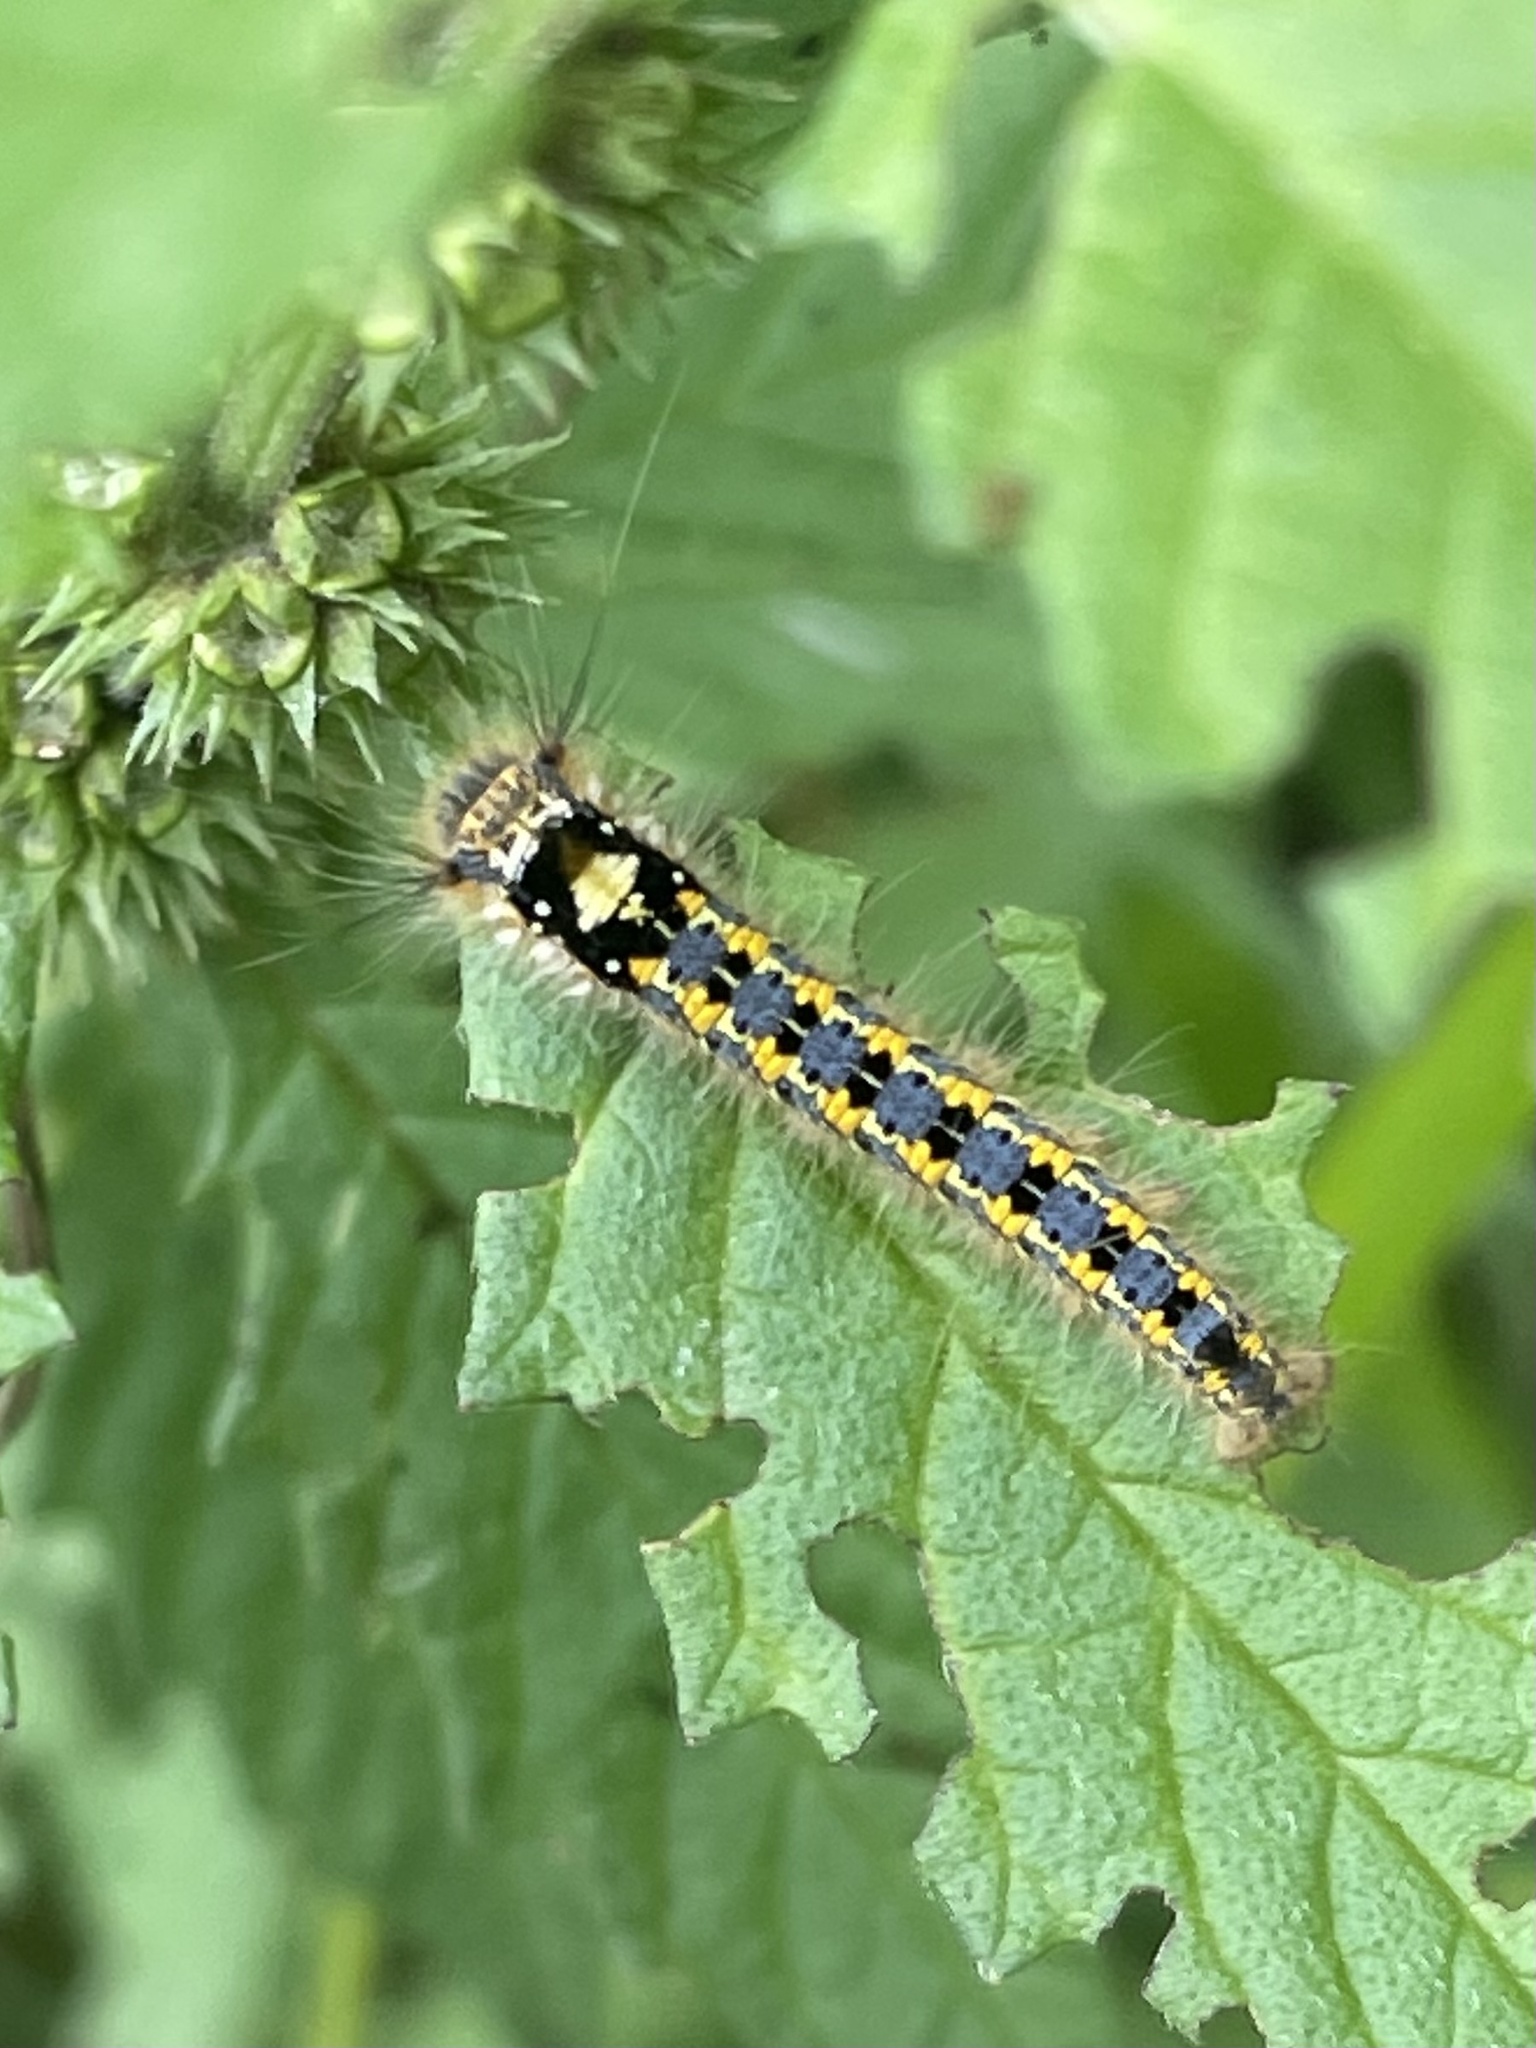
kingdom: Animalia
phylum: Arthropoda
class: Insecta
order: Lepidoptera
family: Lasiocampidae
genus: Euthrix
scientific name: Euthrix potatoria
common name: Drinker
